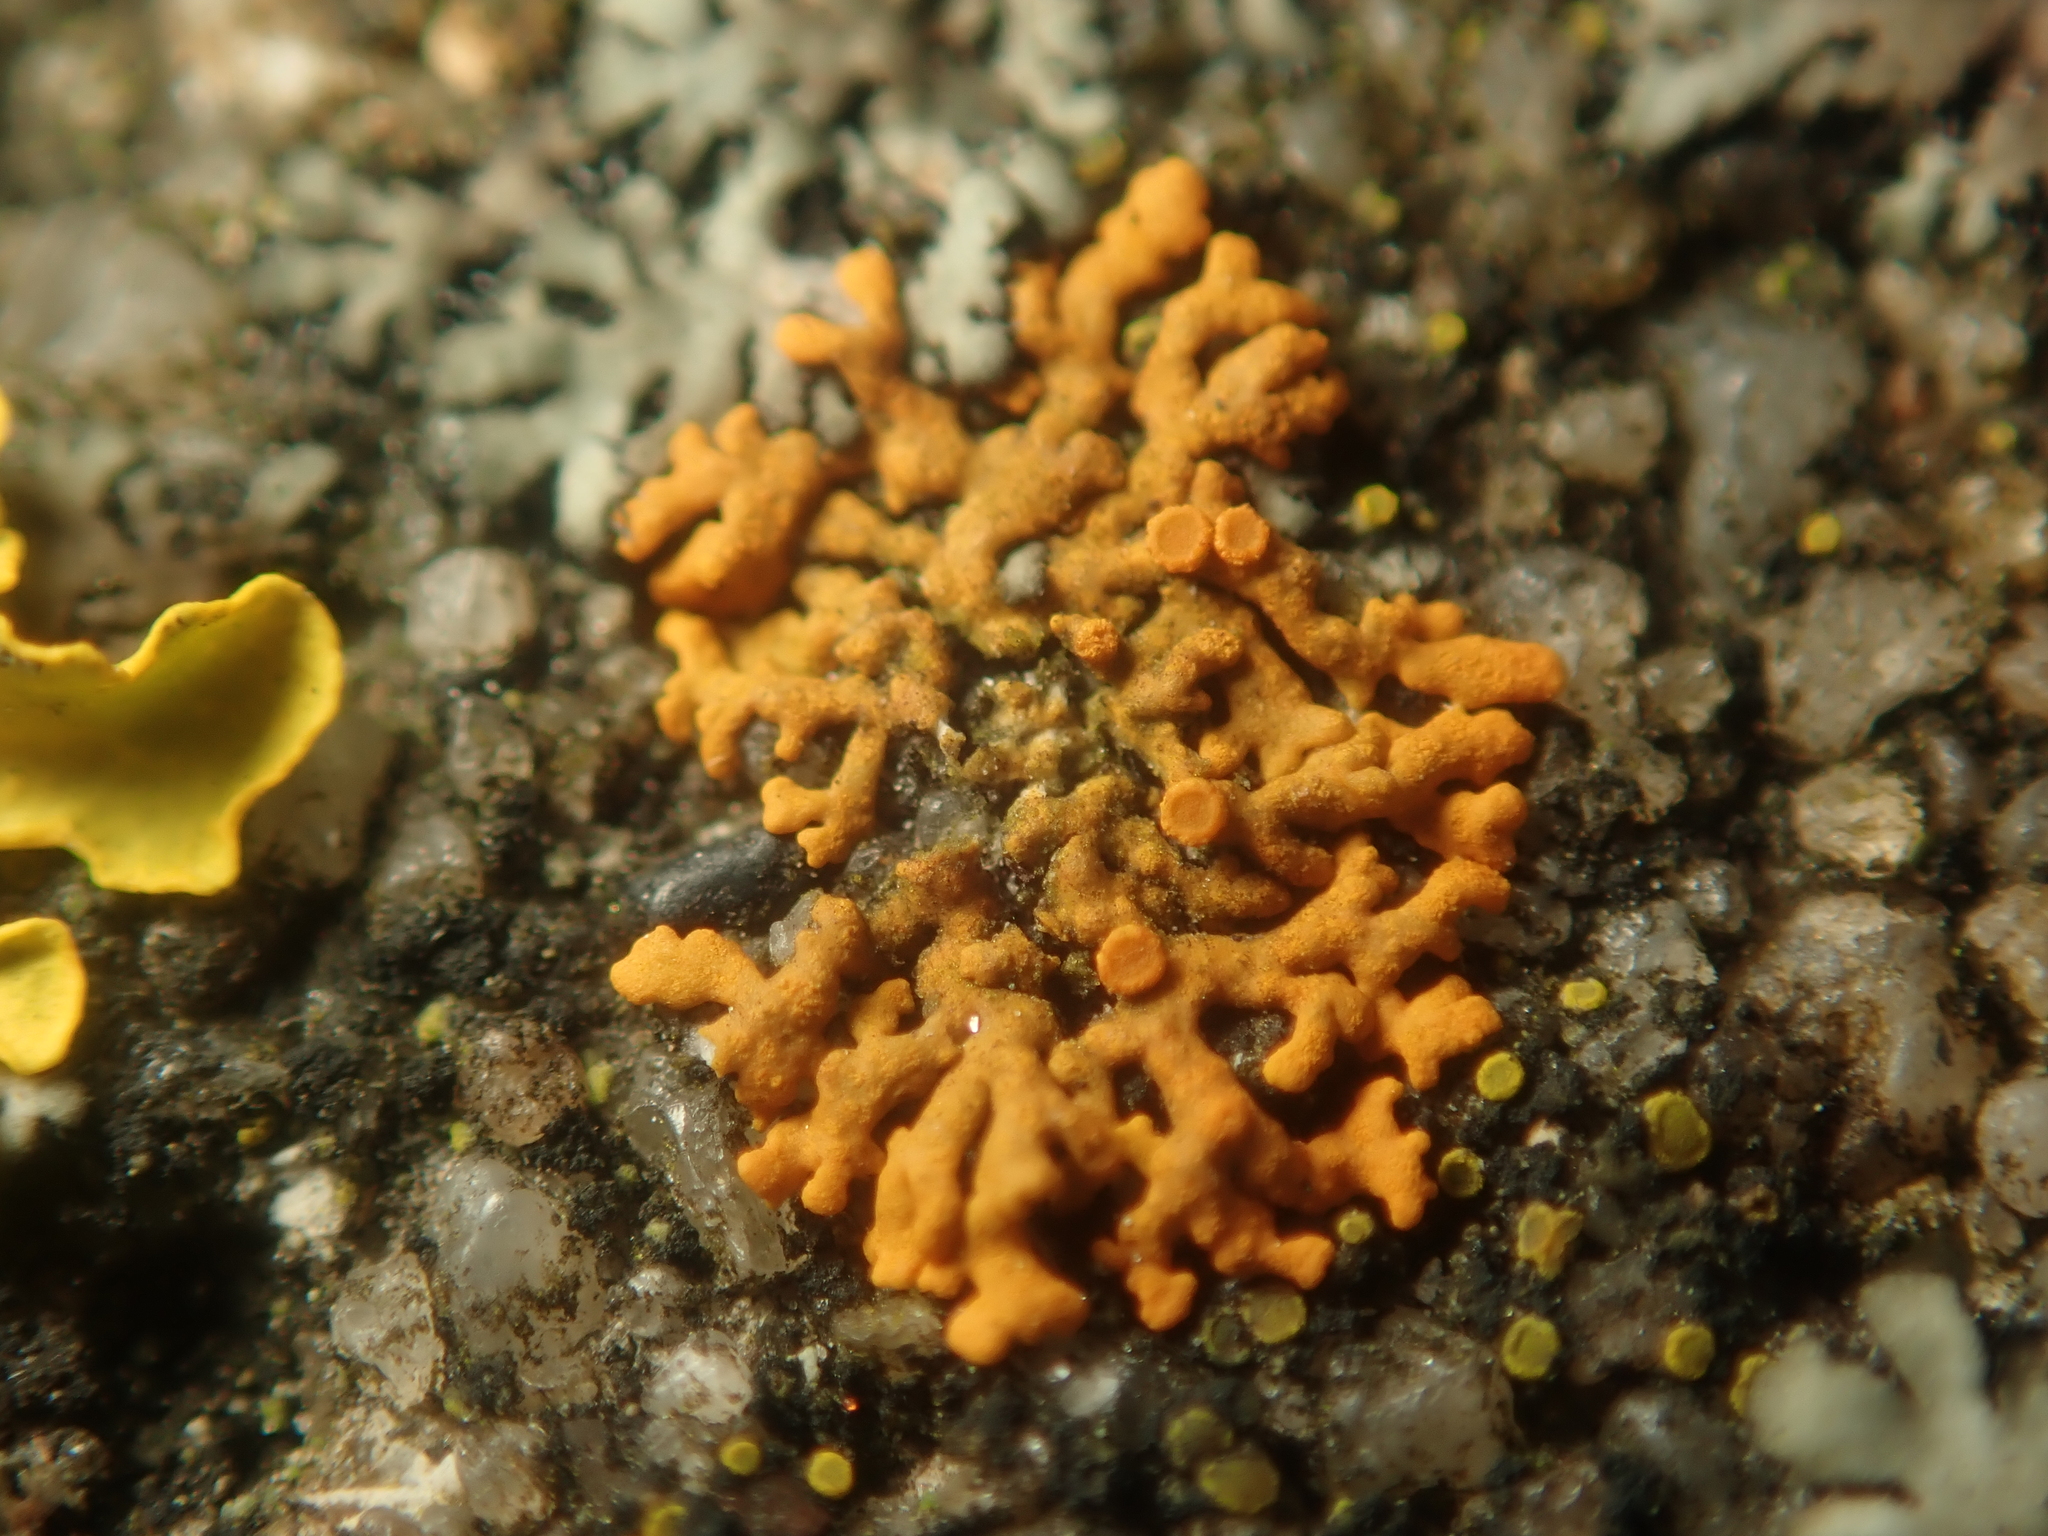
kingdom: Fungi
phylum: Ascomycota
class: Lecanoromycetes
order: Teloschistales
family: Teloschistaceae
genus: Xanthoria
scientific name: Xanthoria elegans
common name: Elegant sunburst lichen
